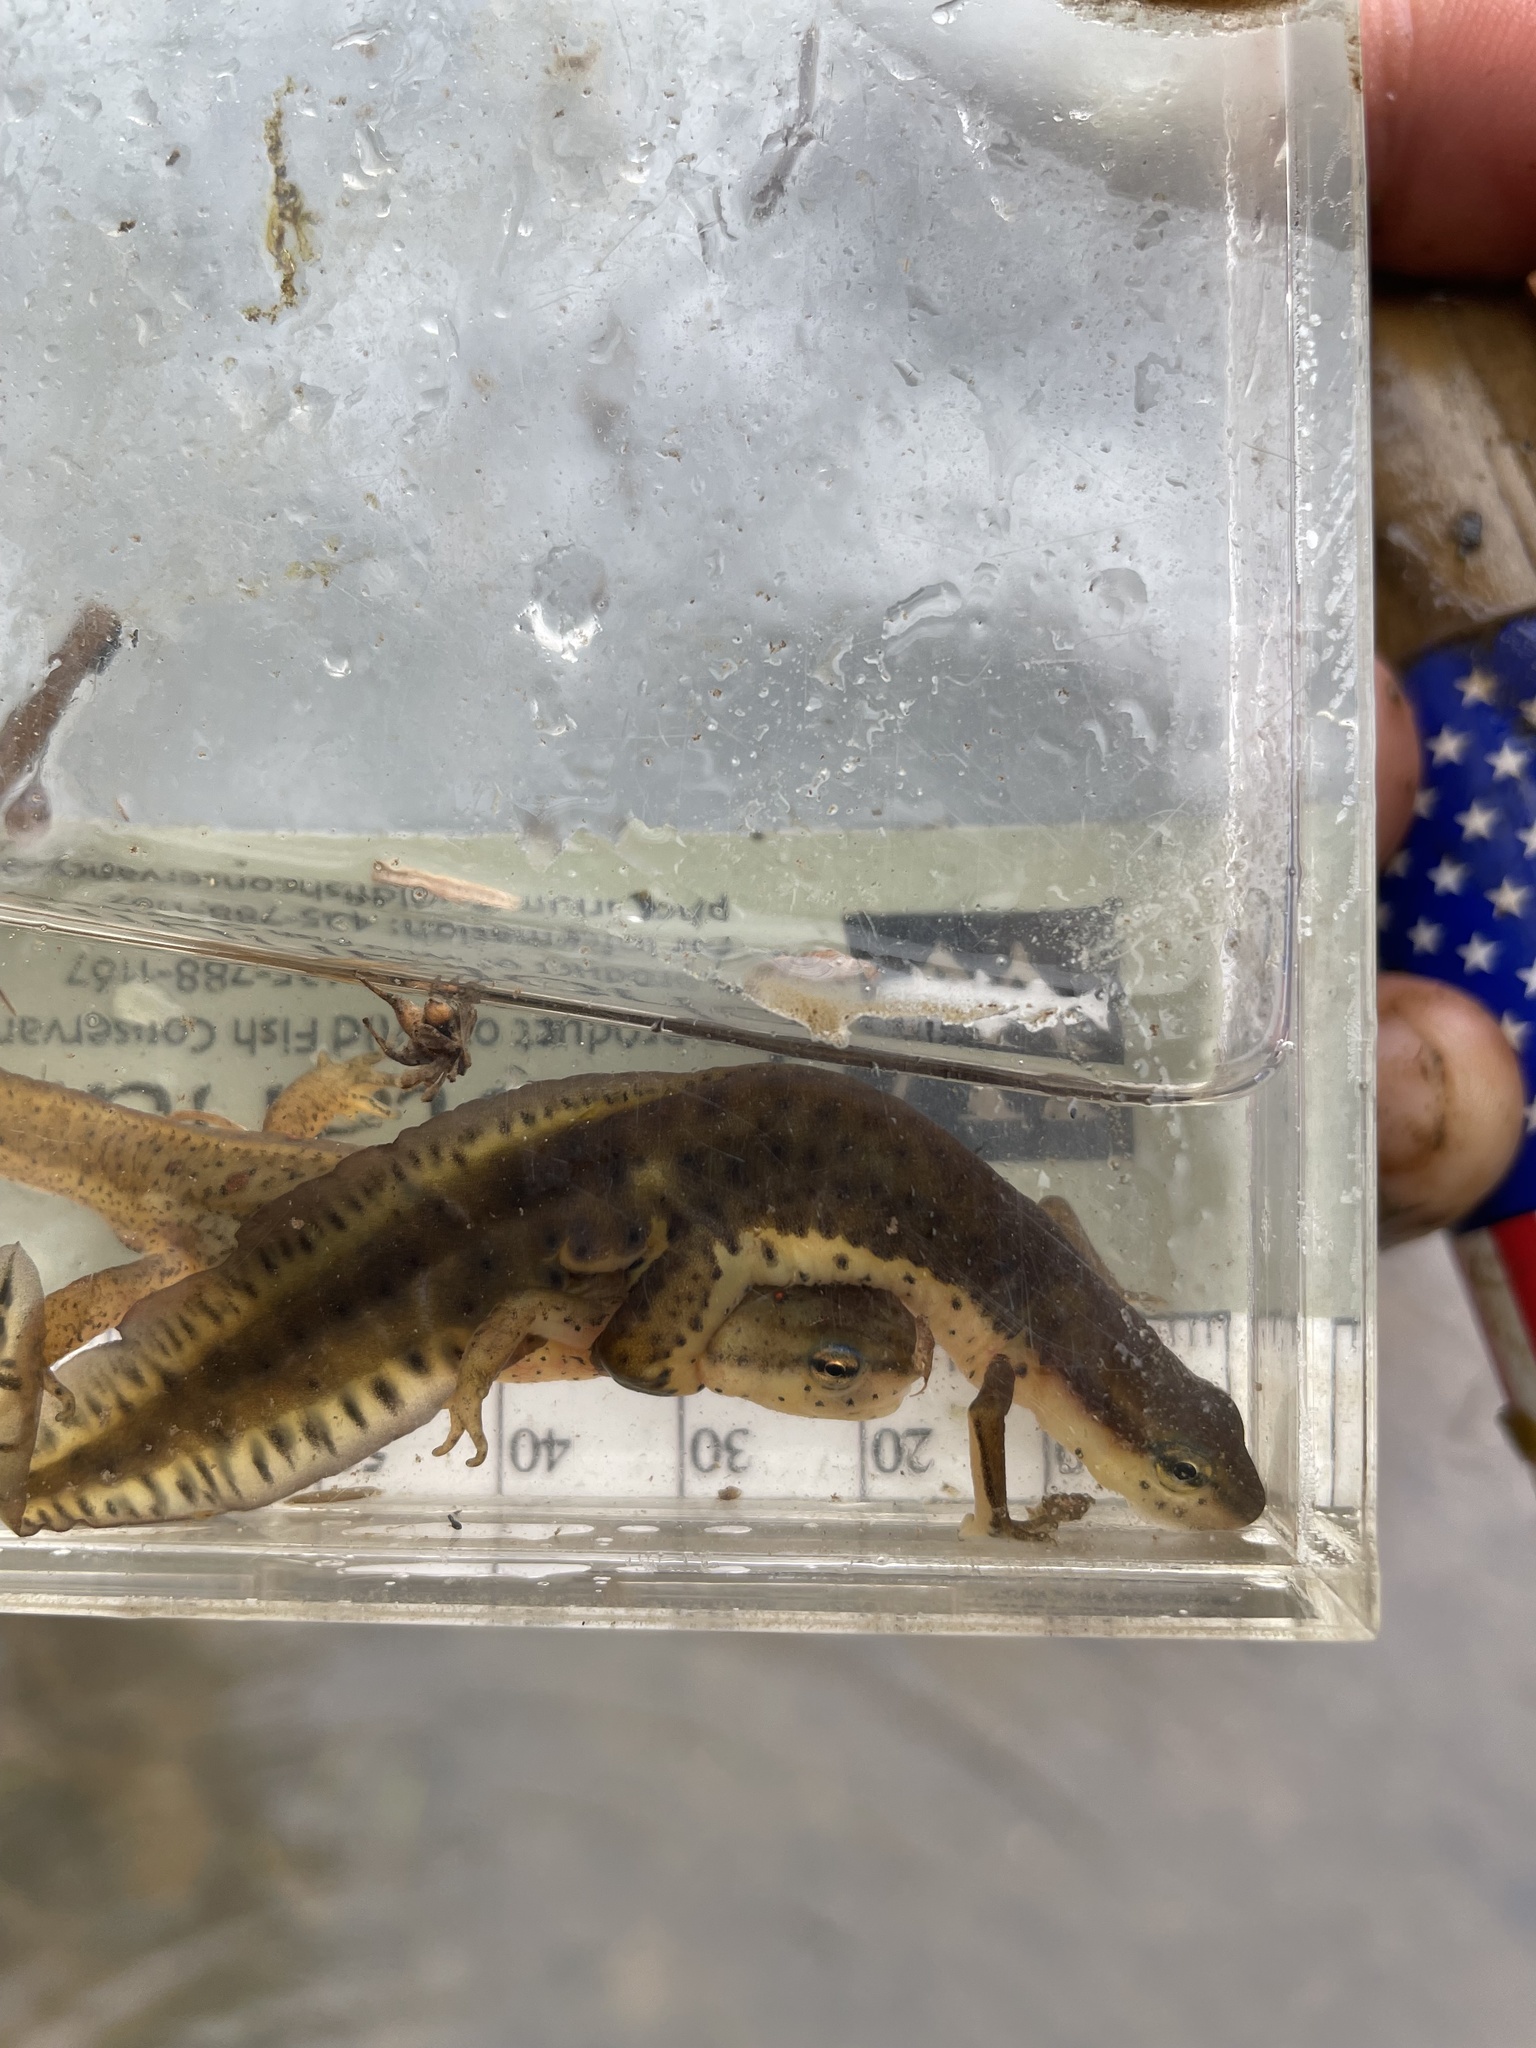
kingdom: Animalia
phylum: Chordata
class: Amphibia
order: Caudata
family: Salamandridae
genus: Notophthalmus
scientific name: Notophthalmus viridescens
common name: Eastern newt
